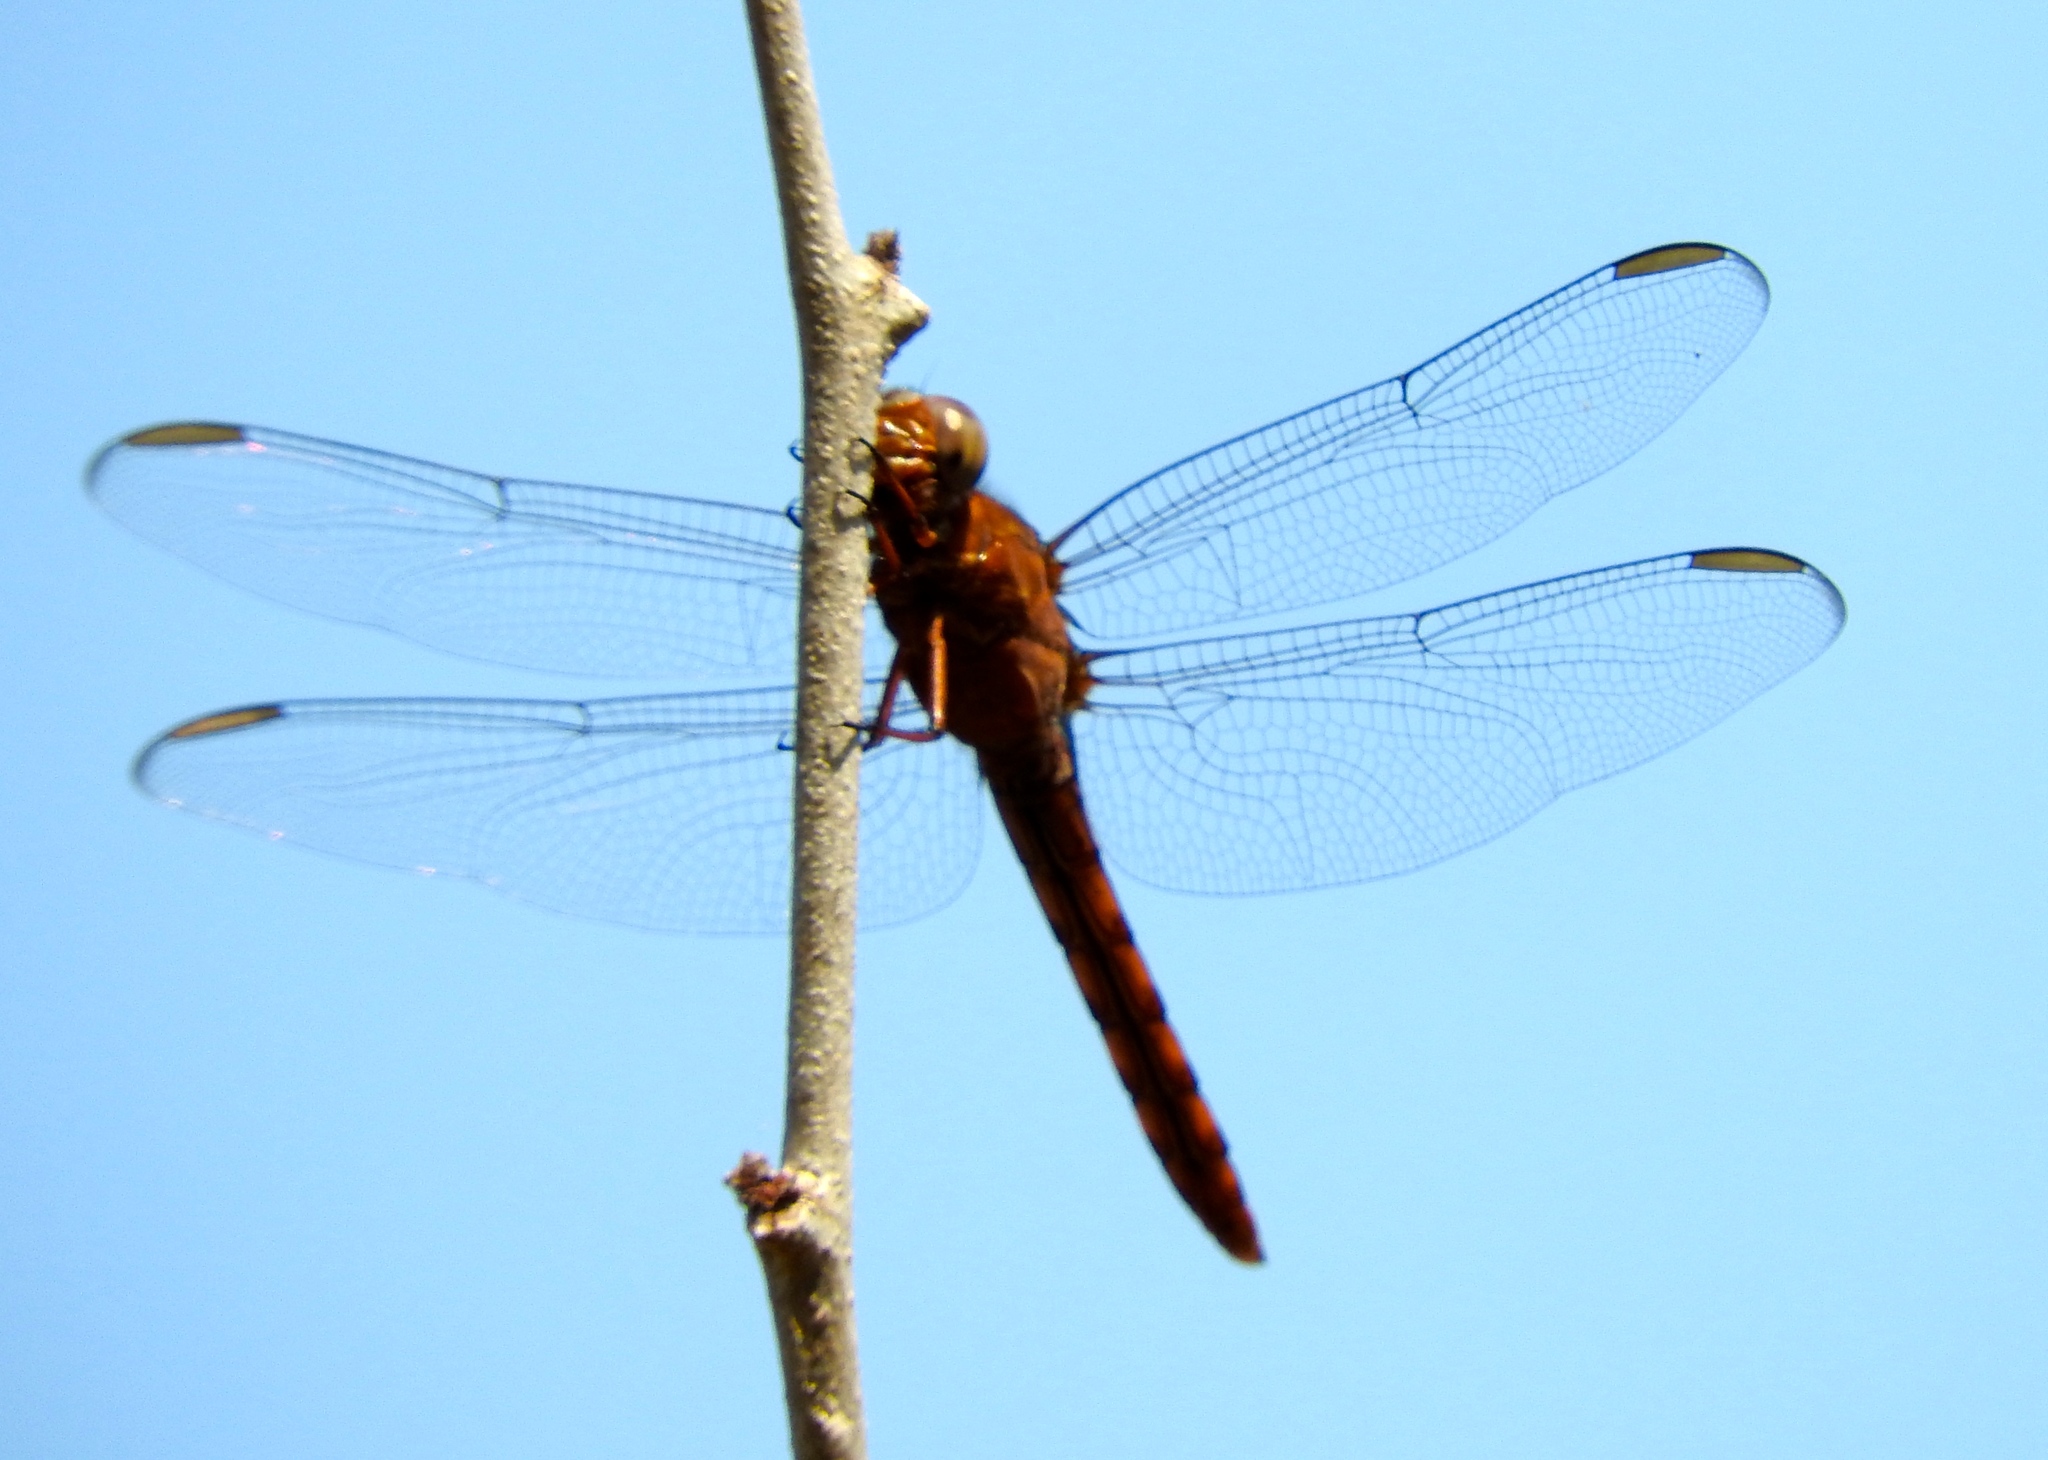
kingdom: Animalia
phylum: Arthropoda
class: Insecta
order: Odonata
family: Libellulidae
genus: Orthemis
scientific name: Orthemis
